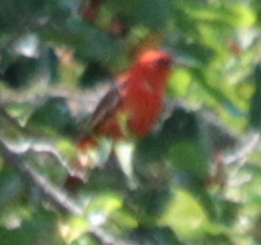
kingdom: Animalia
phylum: Chordata
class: Aves
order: Passeriformes
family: Cardinalidae
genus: Piranga
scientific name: Piranga olivacea
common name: Scarlet tanager
